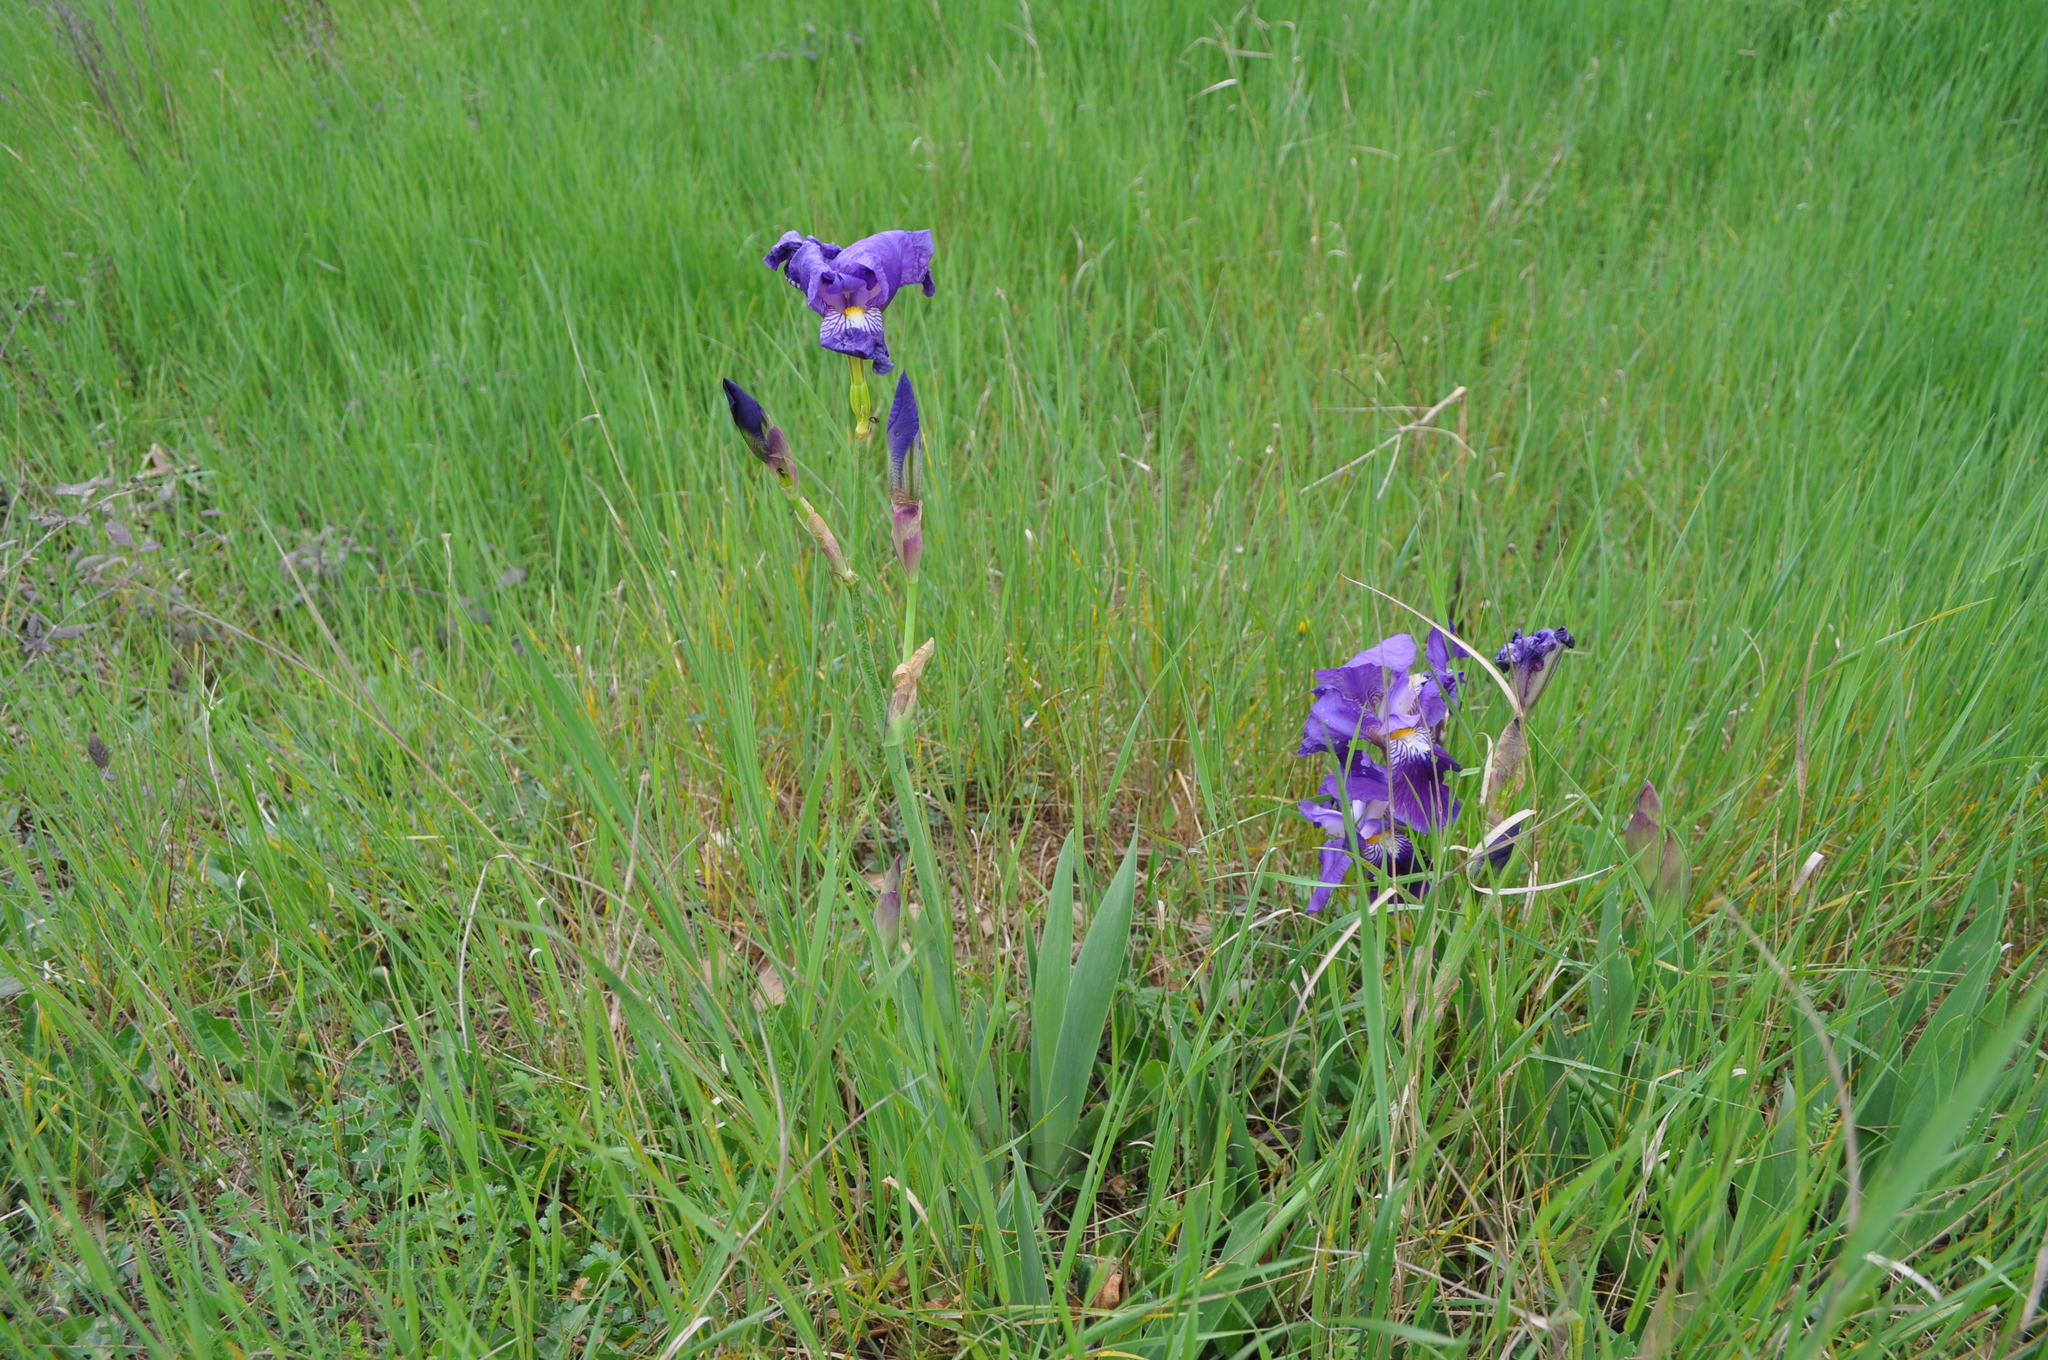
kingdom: Plantae
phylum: Tracheophyta
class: Liliopsida
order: Asparagales
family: Iridaceae
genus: Iris
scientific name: Iris germanica
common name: German iris
